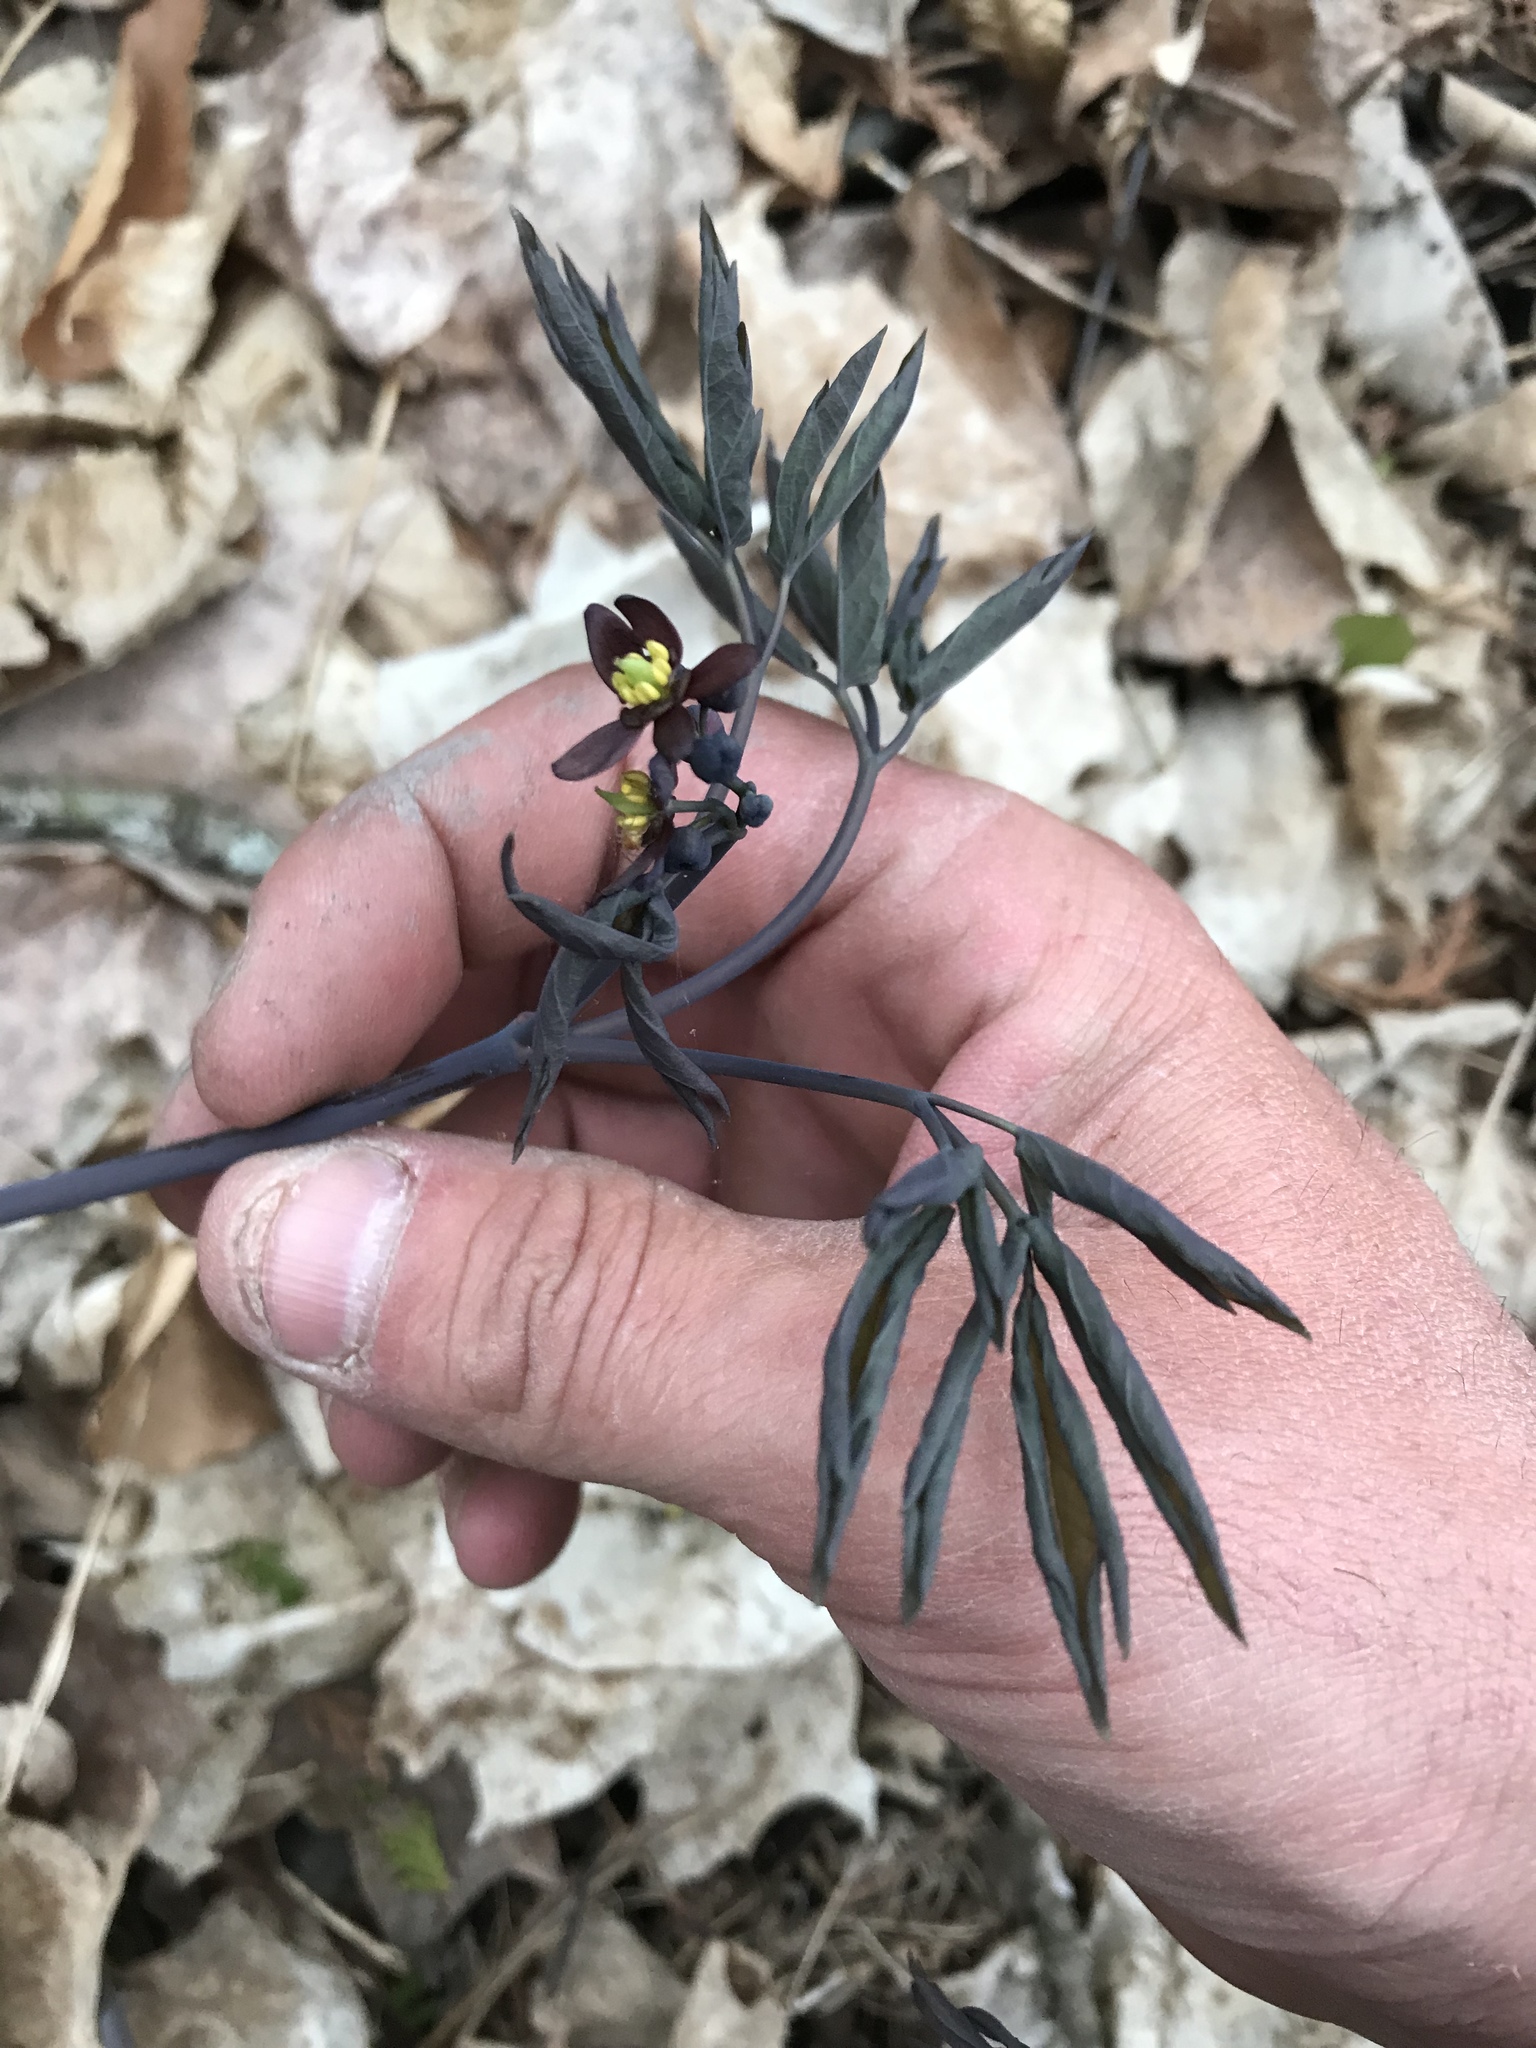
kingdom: Plantae
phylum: Tracheophyta
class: Magnoliopsida
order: Ranunculales
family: Berberidaceae
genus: Caulophyllum
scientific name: Caulophyllum giganteum
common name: Blue cohosh
